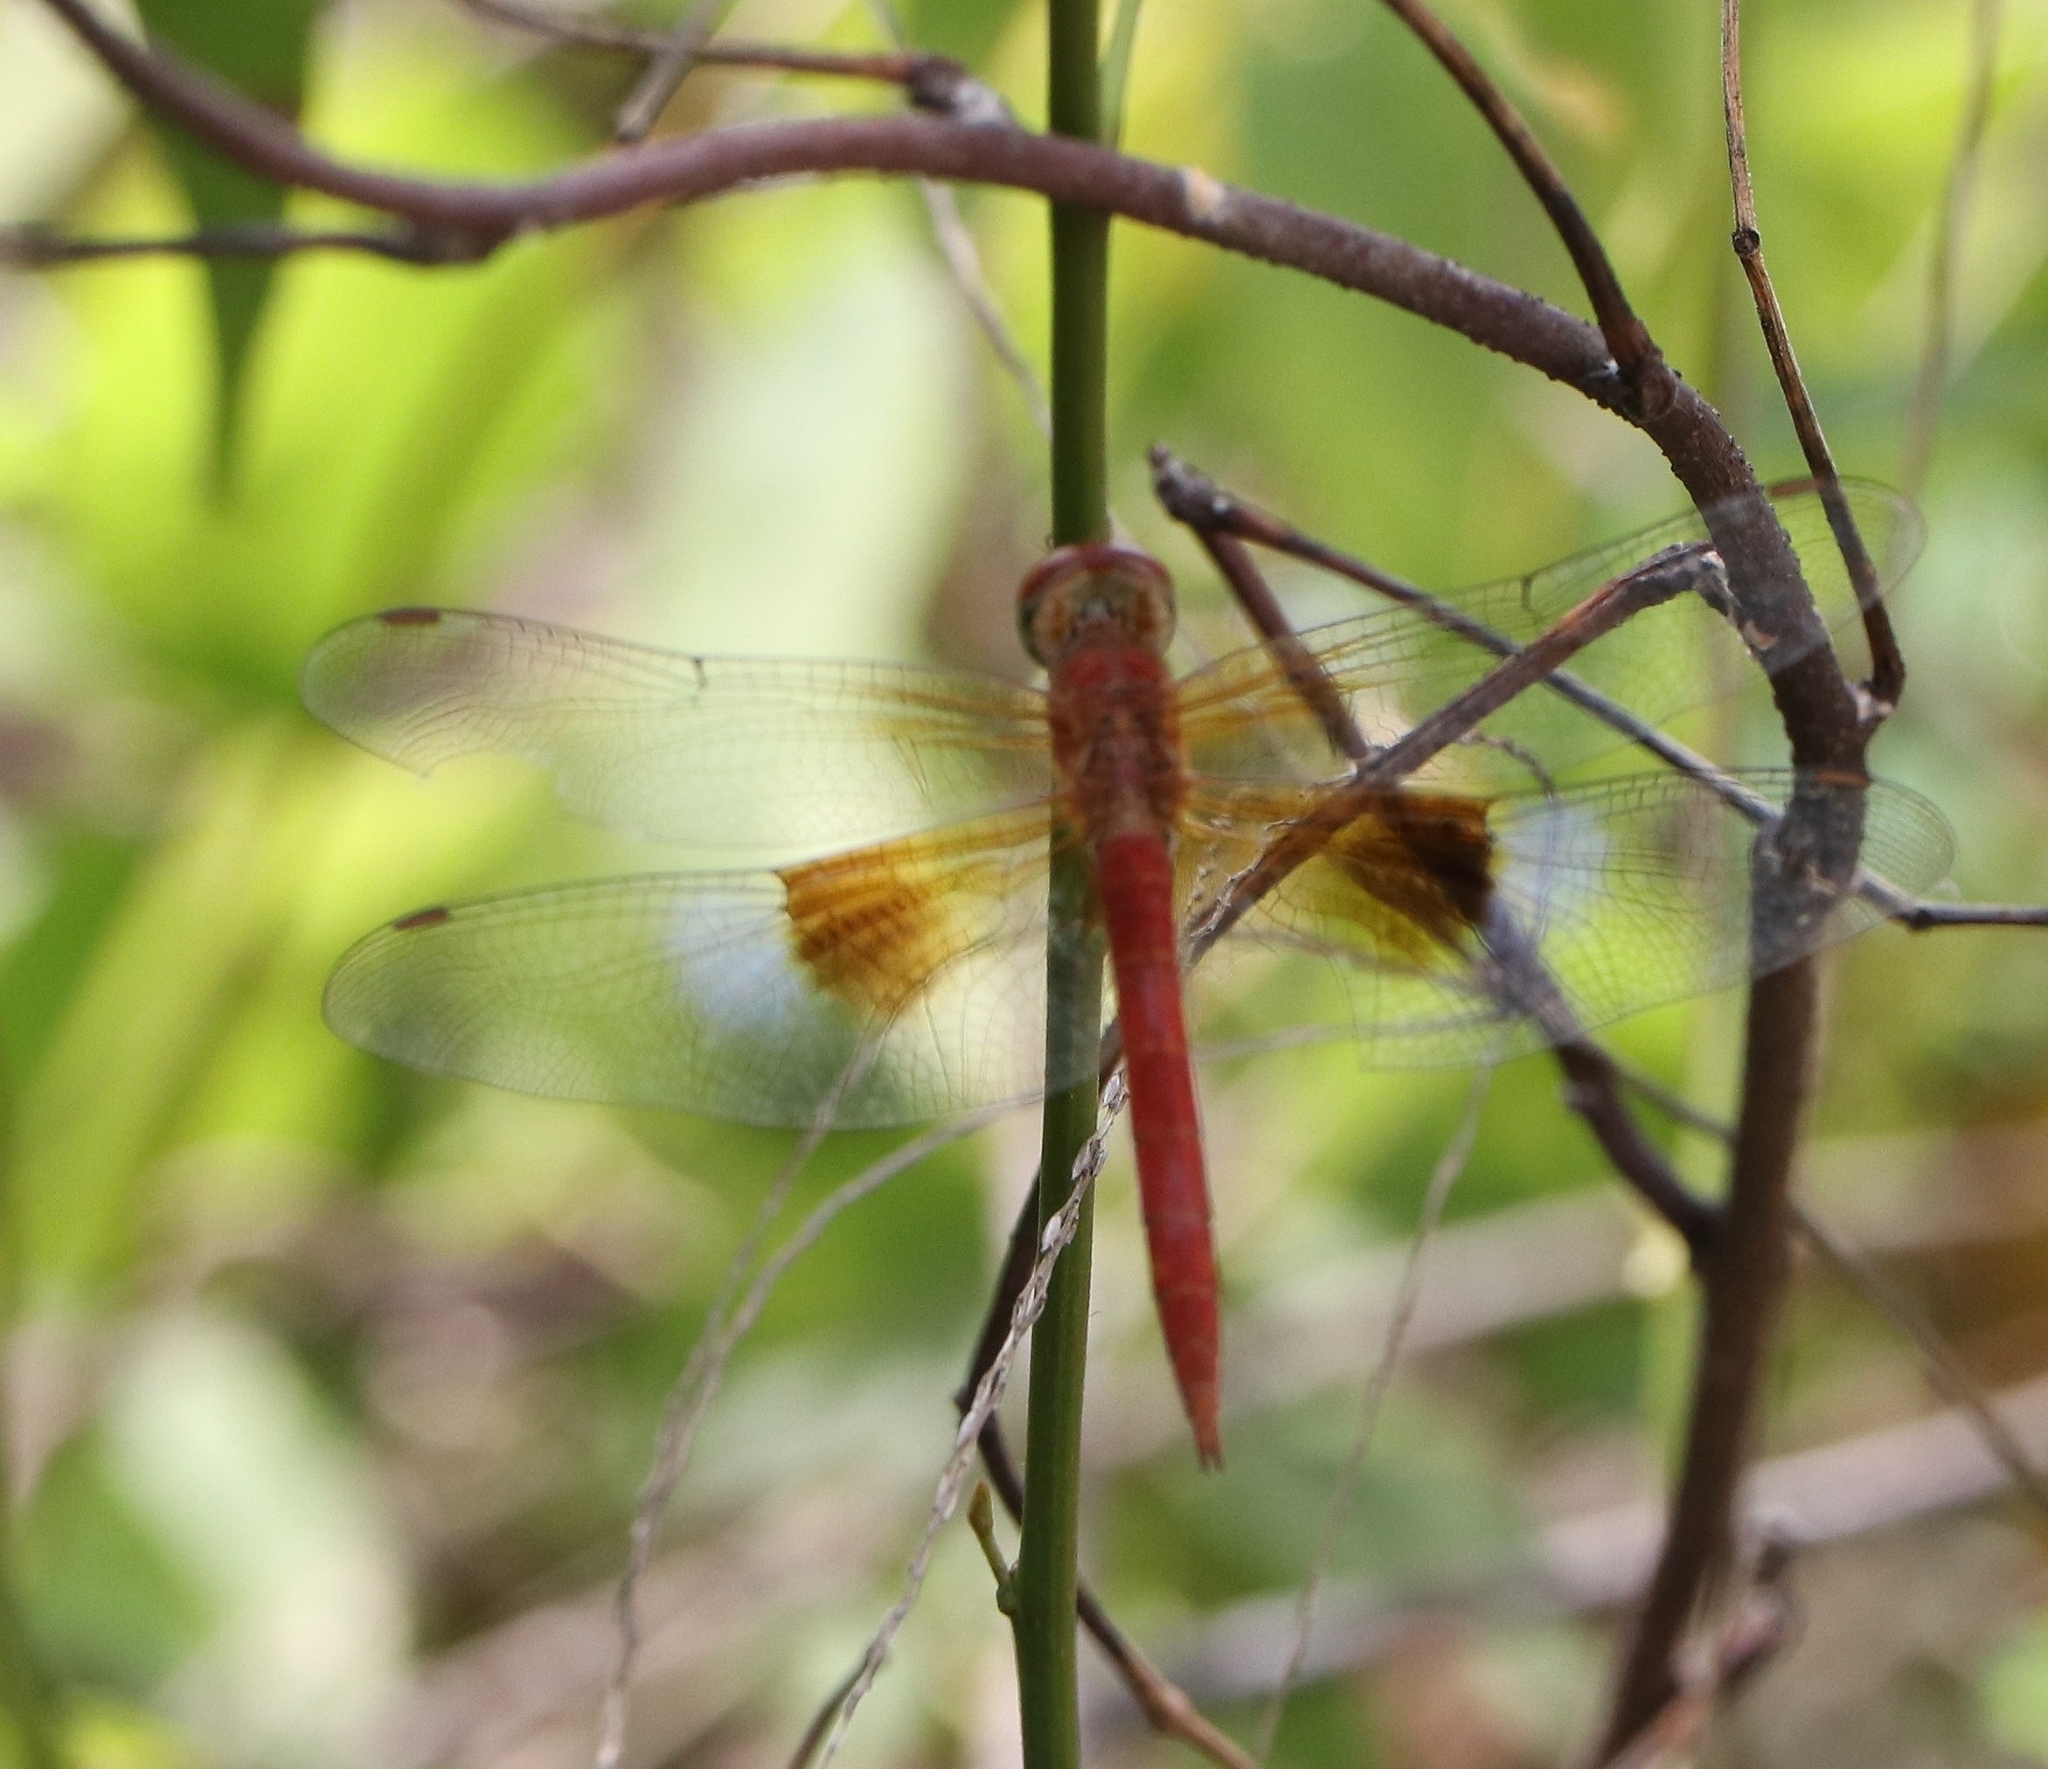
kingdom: Animalia
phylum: Arthropoda
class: Insecta
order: Odonata
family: Libellulidae
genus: Tholymis
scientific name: Tholymis tillarga
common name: Coral-tailed cloud wing
